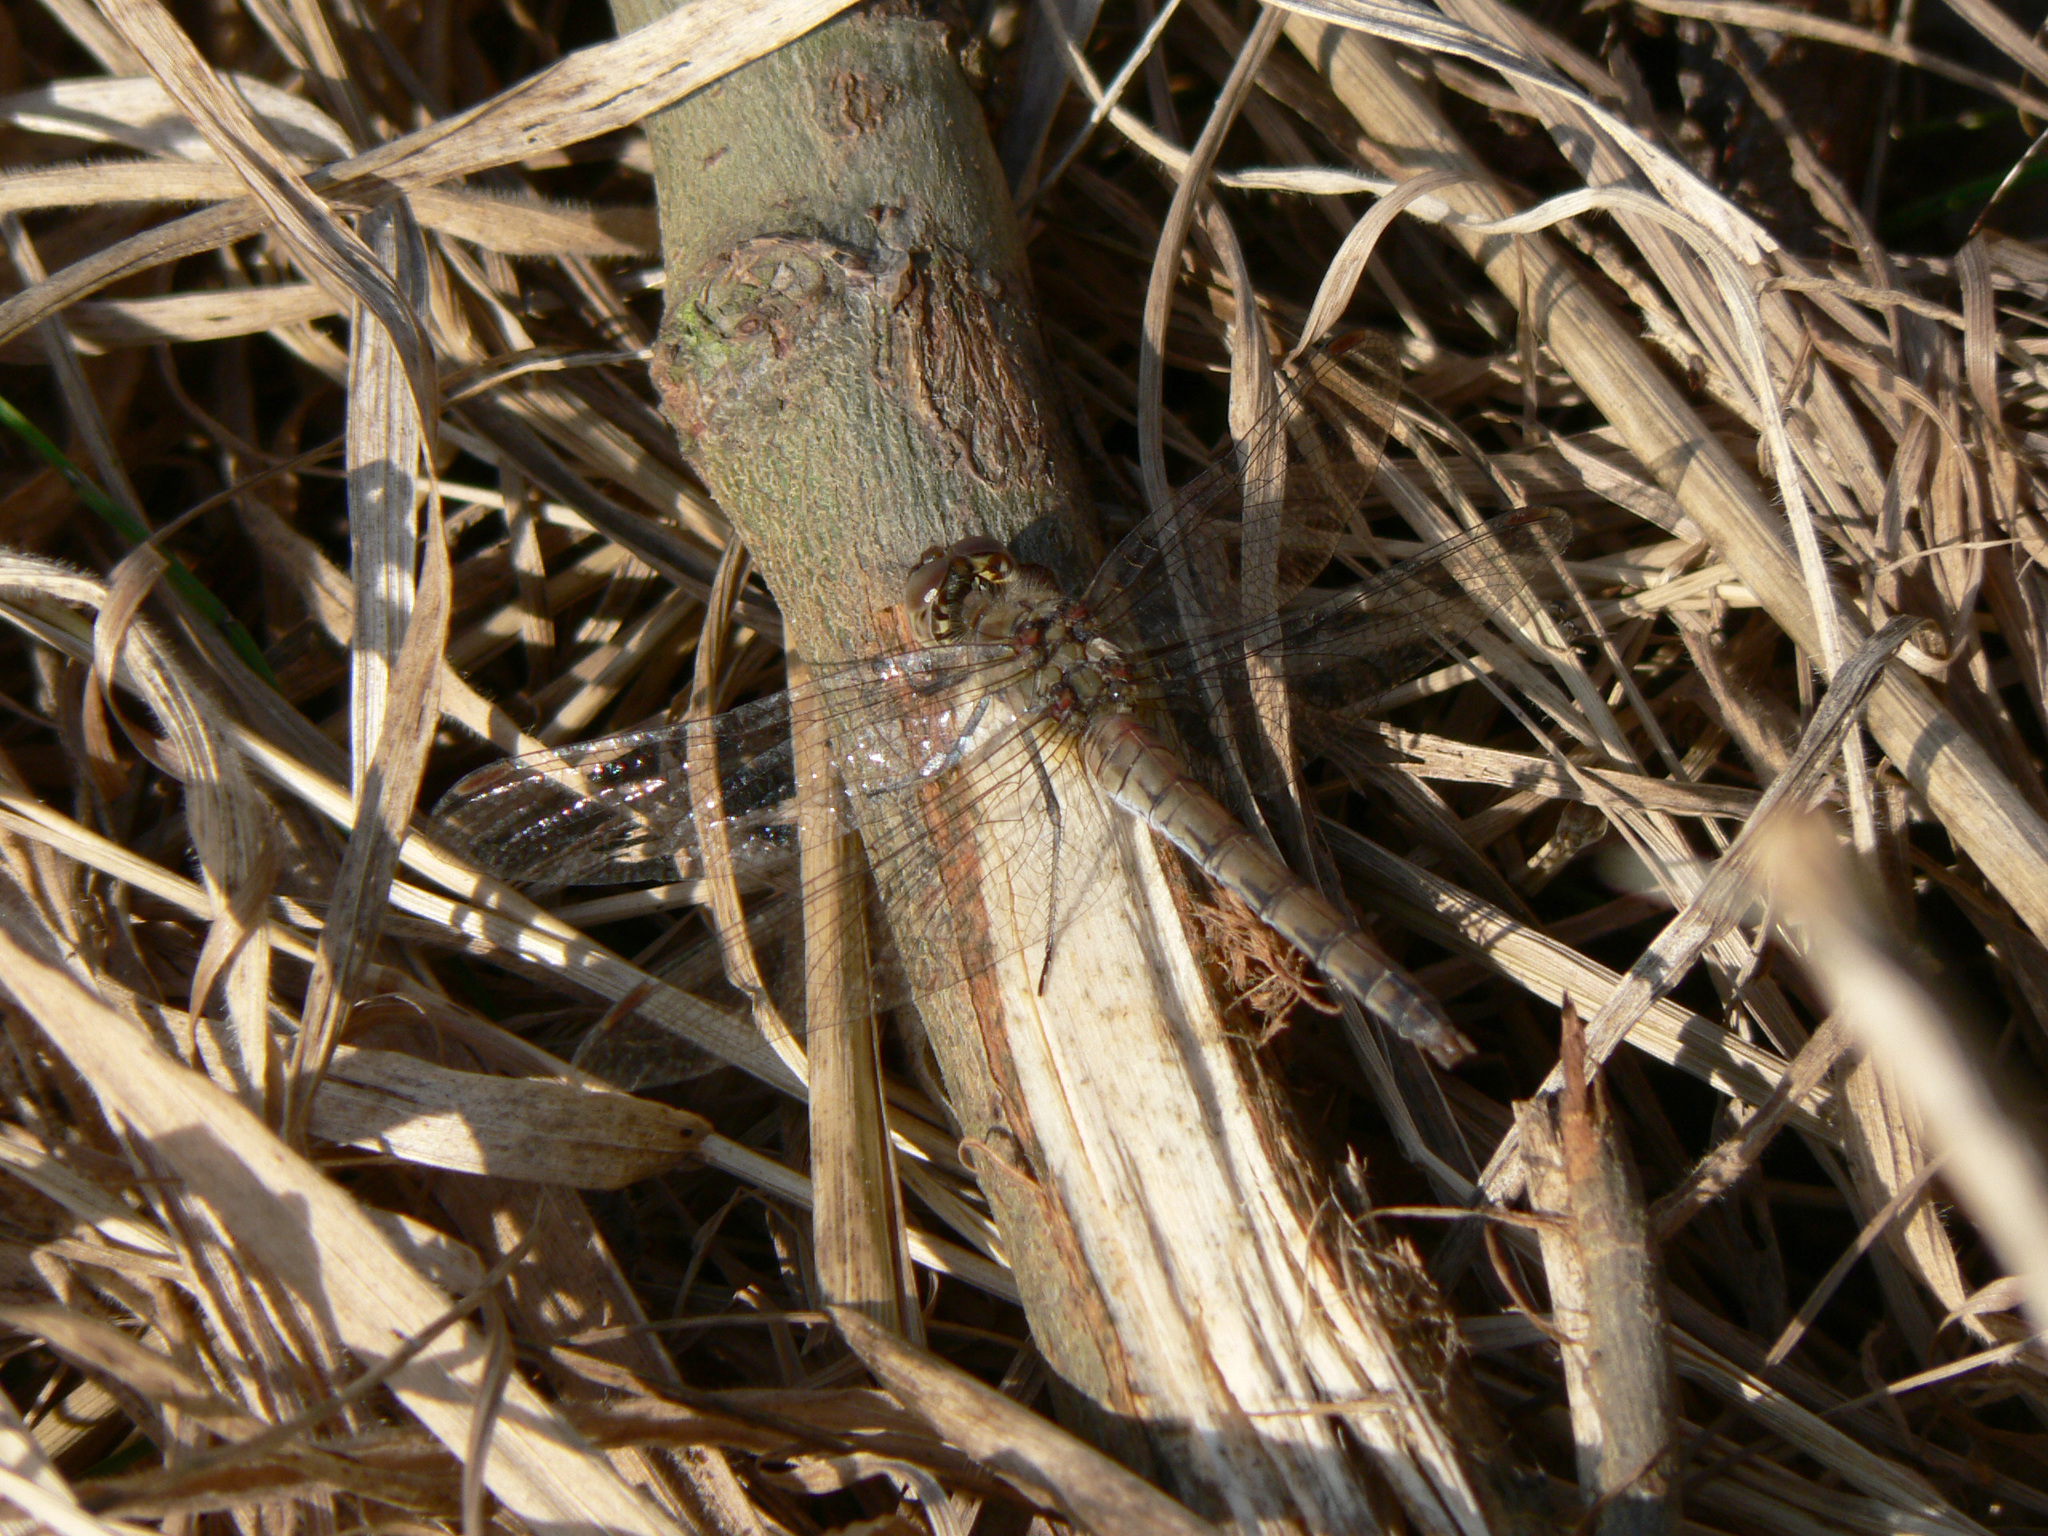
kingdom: Animalia
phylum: Arthropoda
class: Insecta
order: Odonata
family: Libellulidae
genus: Sympetrum
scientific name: Sympetrum striolatum
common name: Common darter
